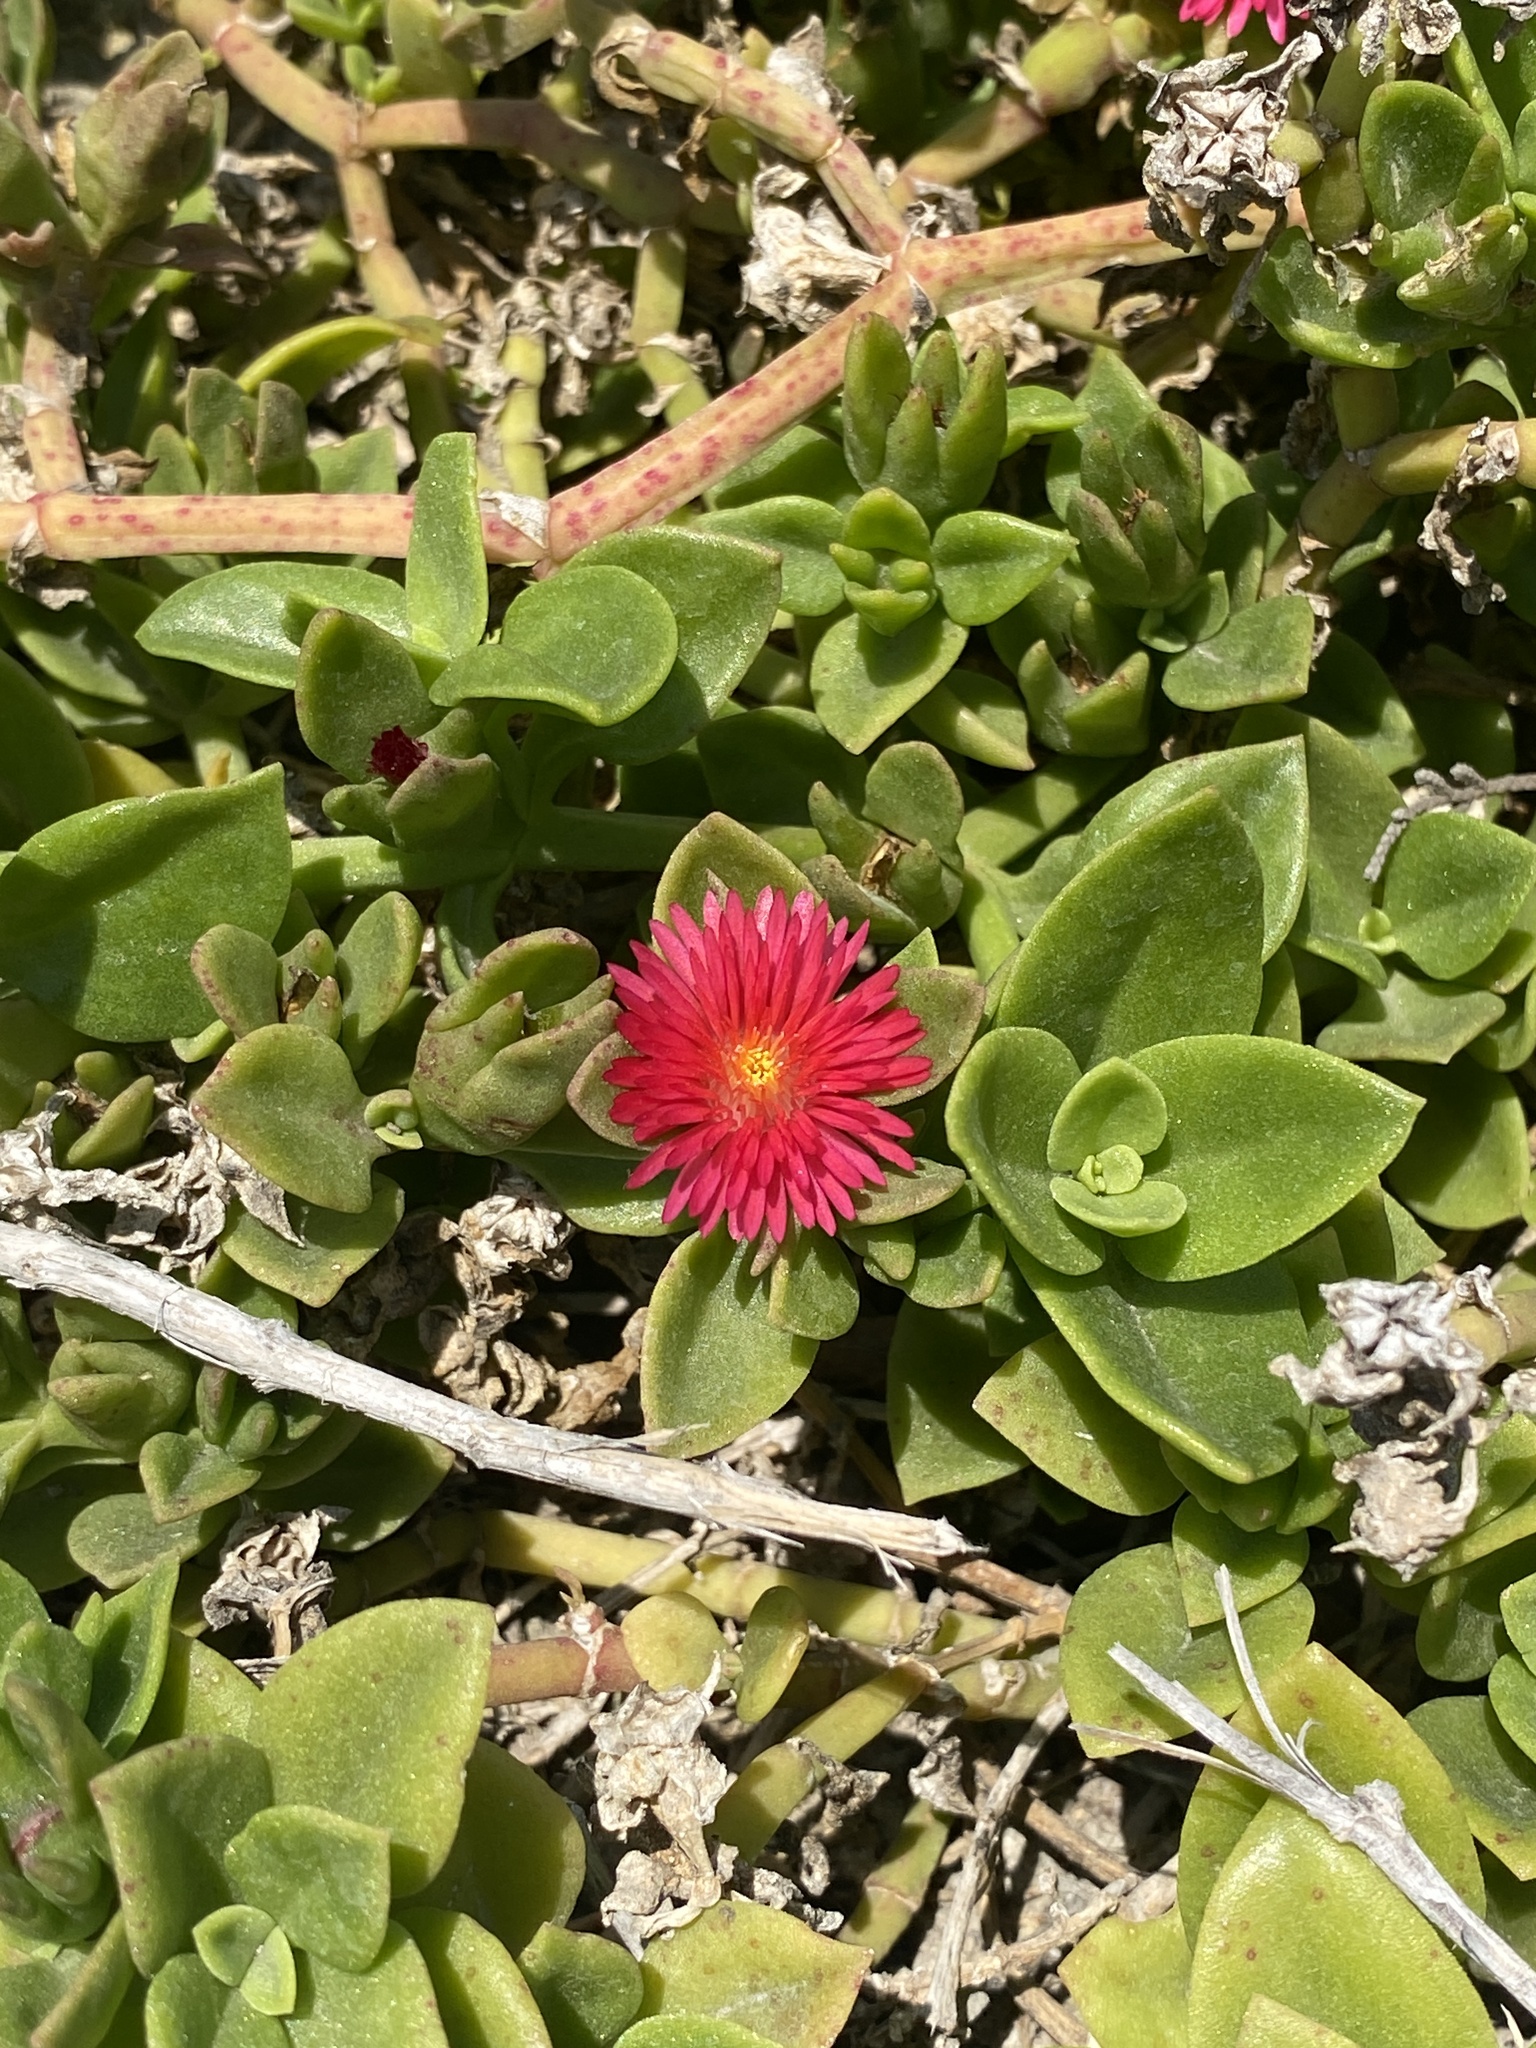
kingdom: Plantae
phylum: Tracheophyta
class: Magnoliopsida
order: Caryophyllales
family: Aizoaceae
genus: Mesembryanthemum
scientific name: Mesembryanthemum cordifolium
